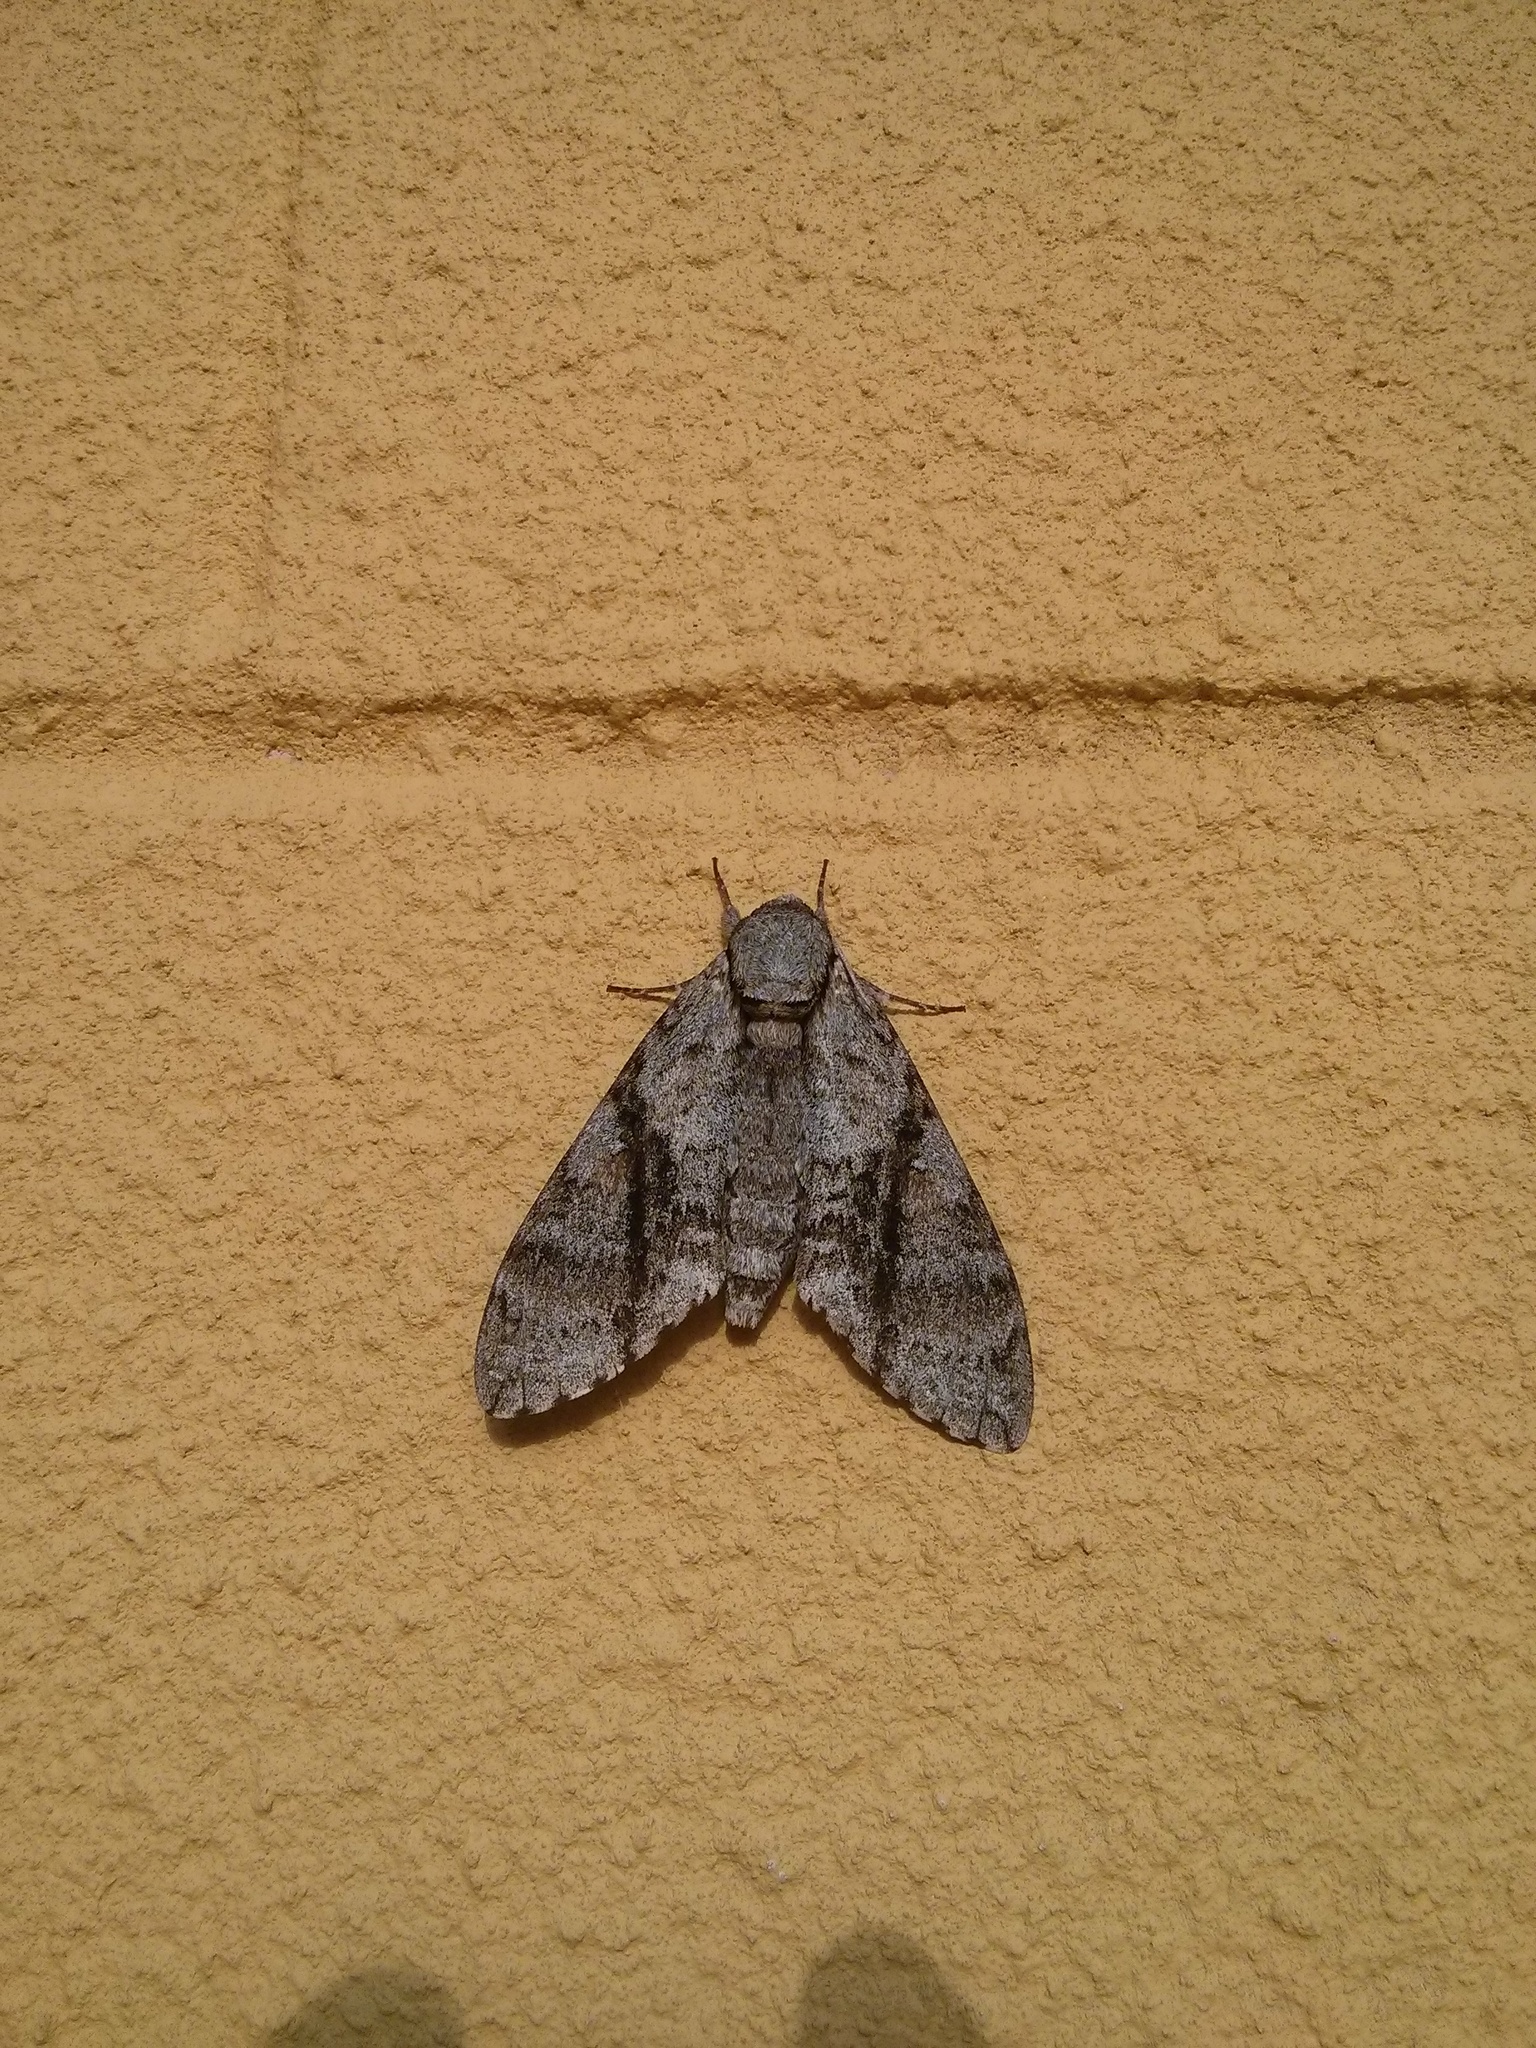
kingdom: Animalia
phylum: Arthropoda
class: Insecta
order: Lepidoptera
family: Sphingidae
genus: Manduca
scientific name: Manduca jasminearum
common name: Ash sphinx
